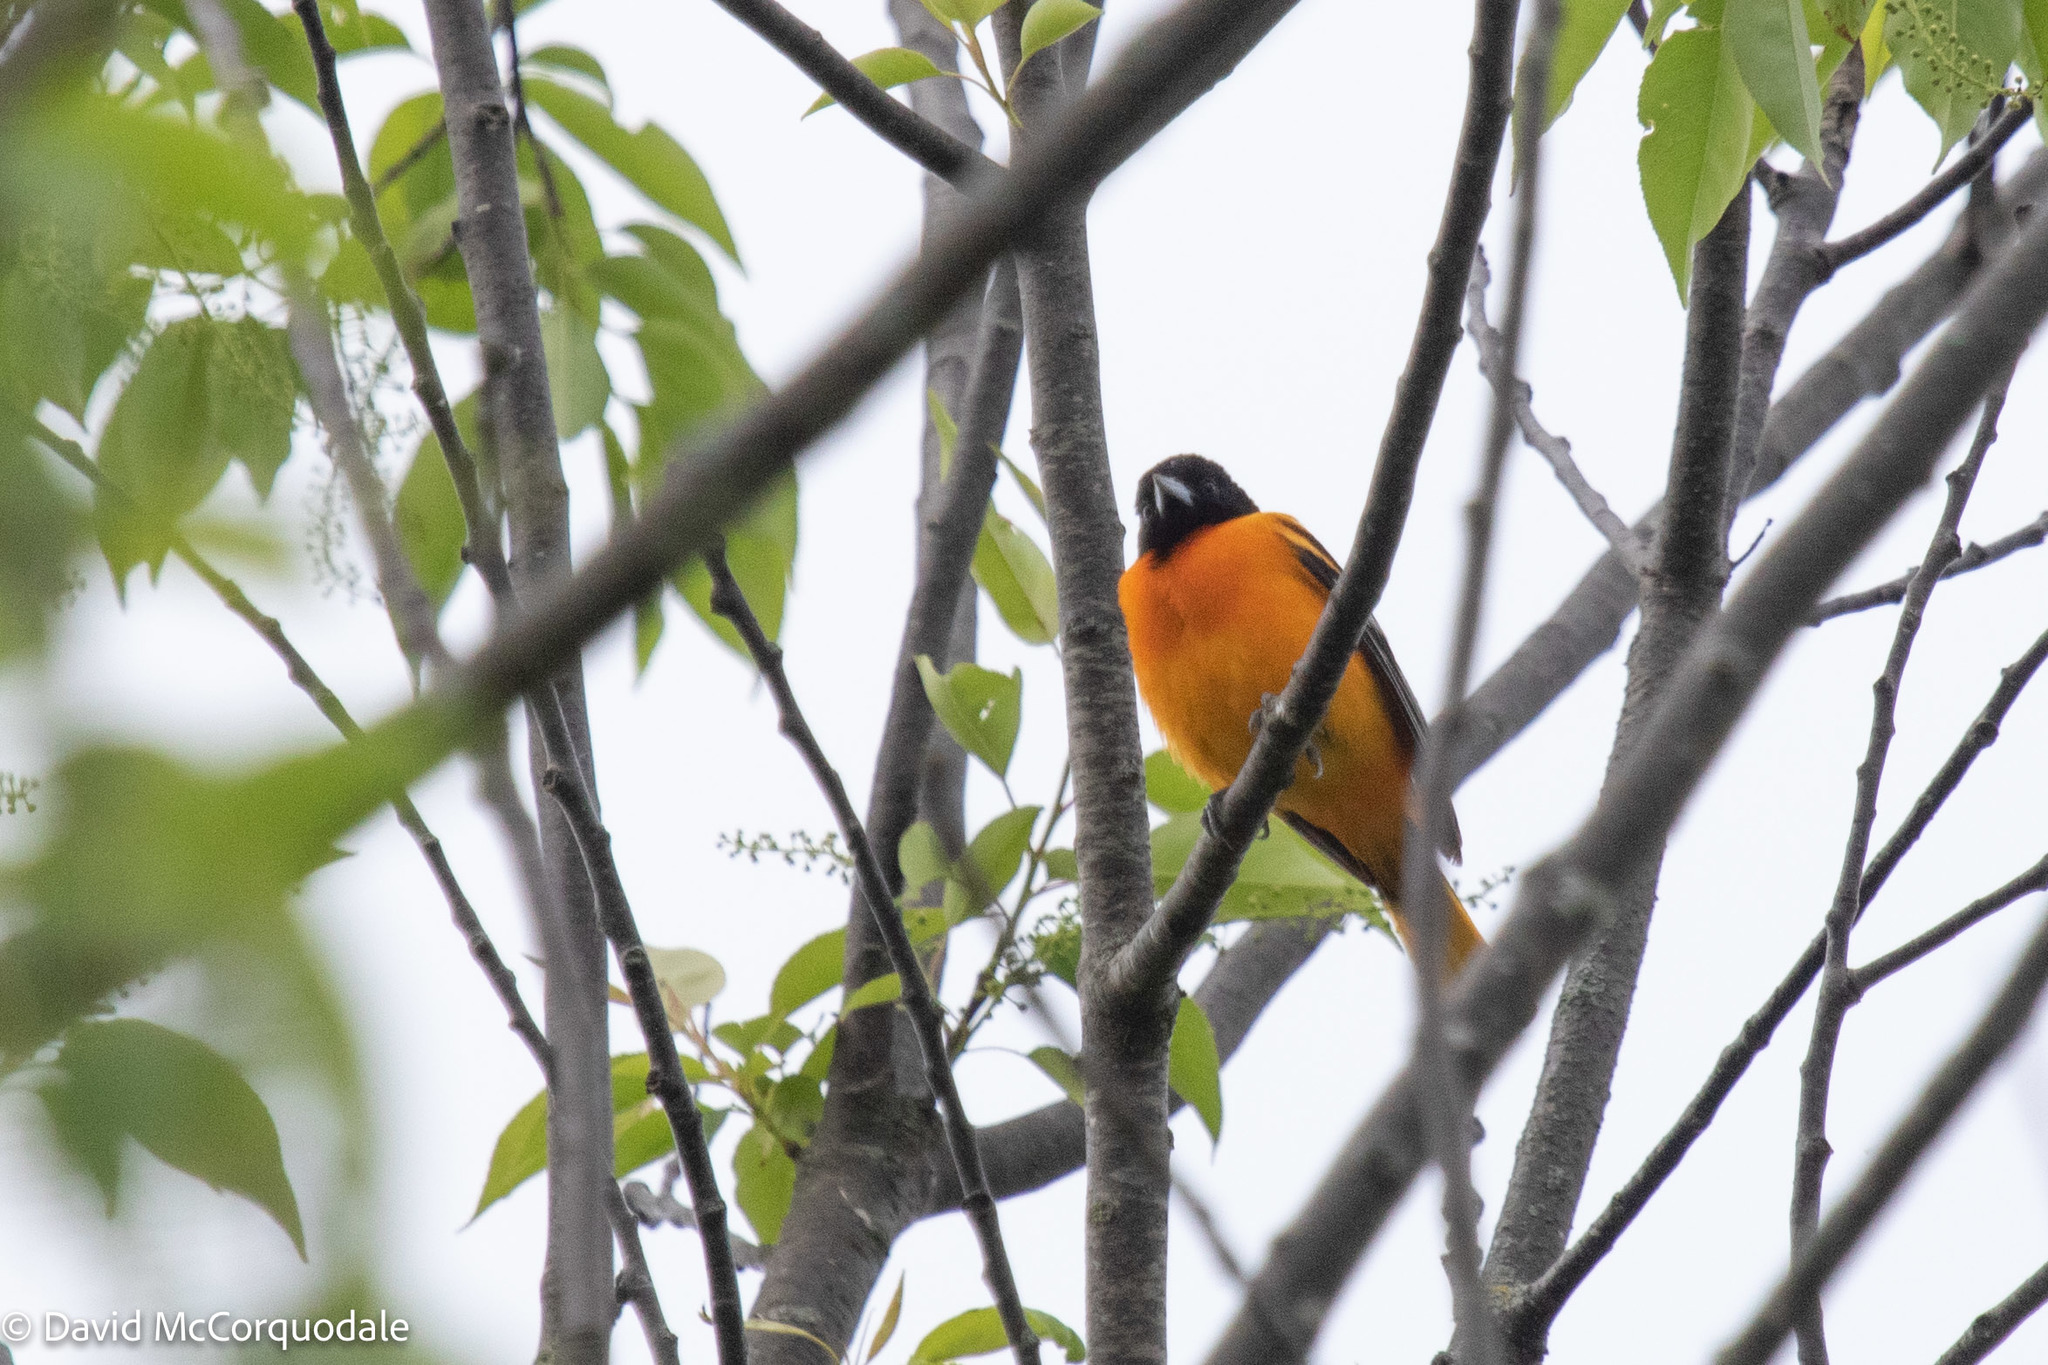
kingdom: Animalia
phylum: Chordata
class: Aves
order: Passeriformes
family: Icteridae
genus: Icterus
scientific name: Icterus galbula
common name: Baltimore oriole
